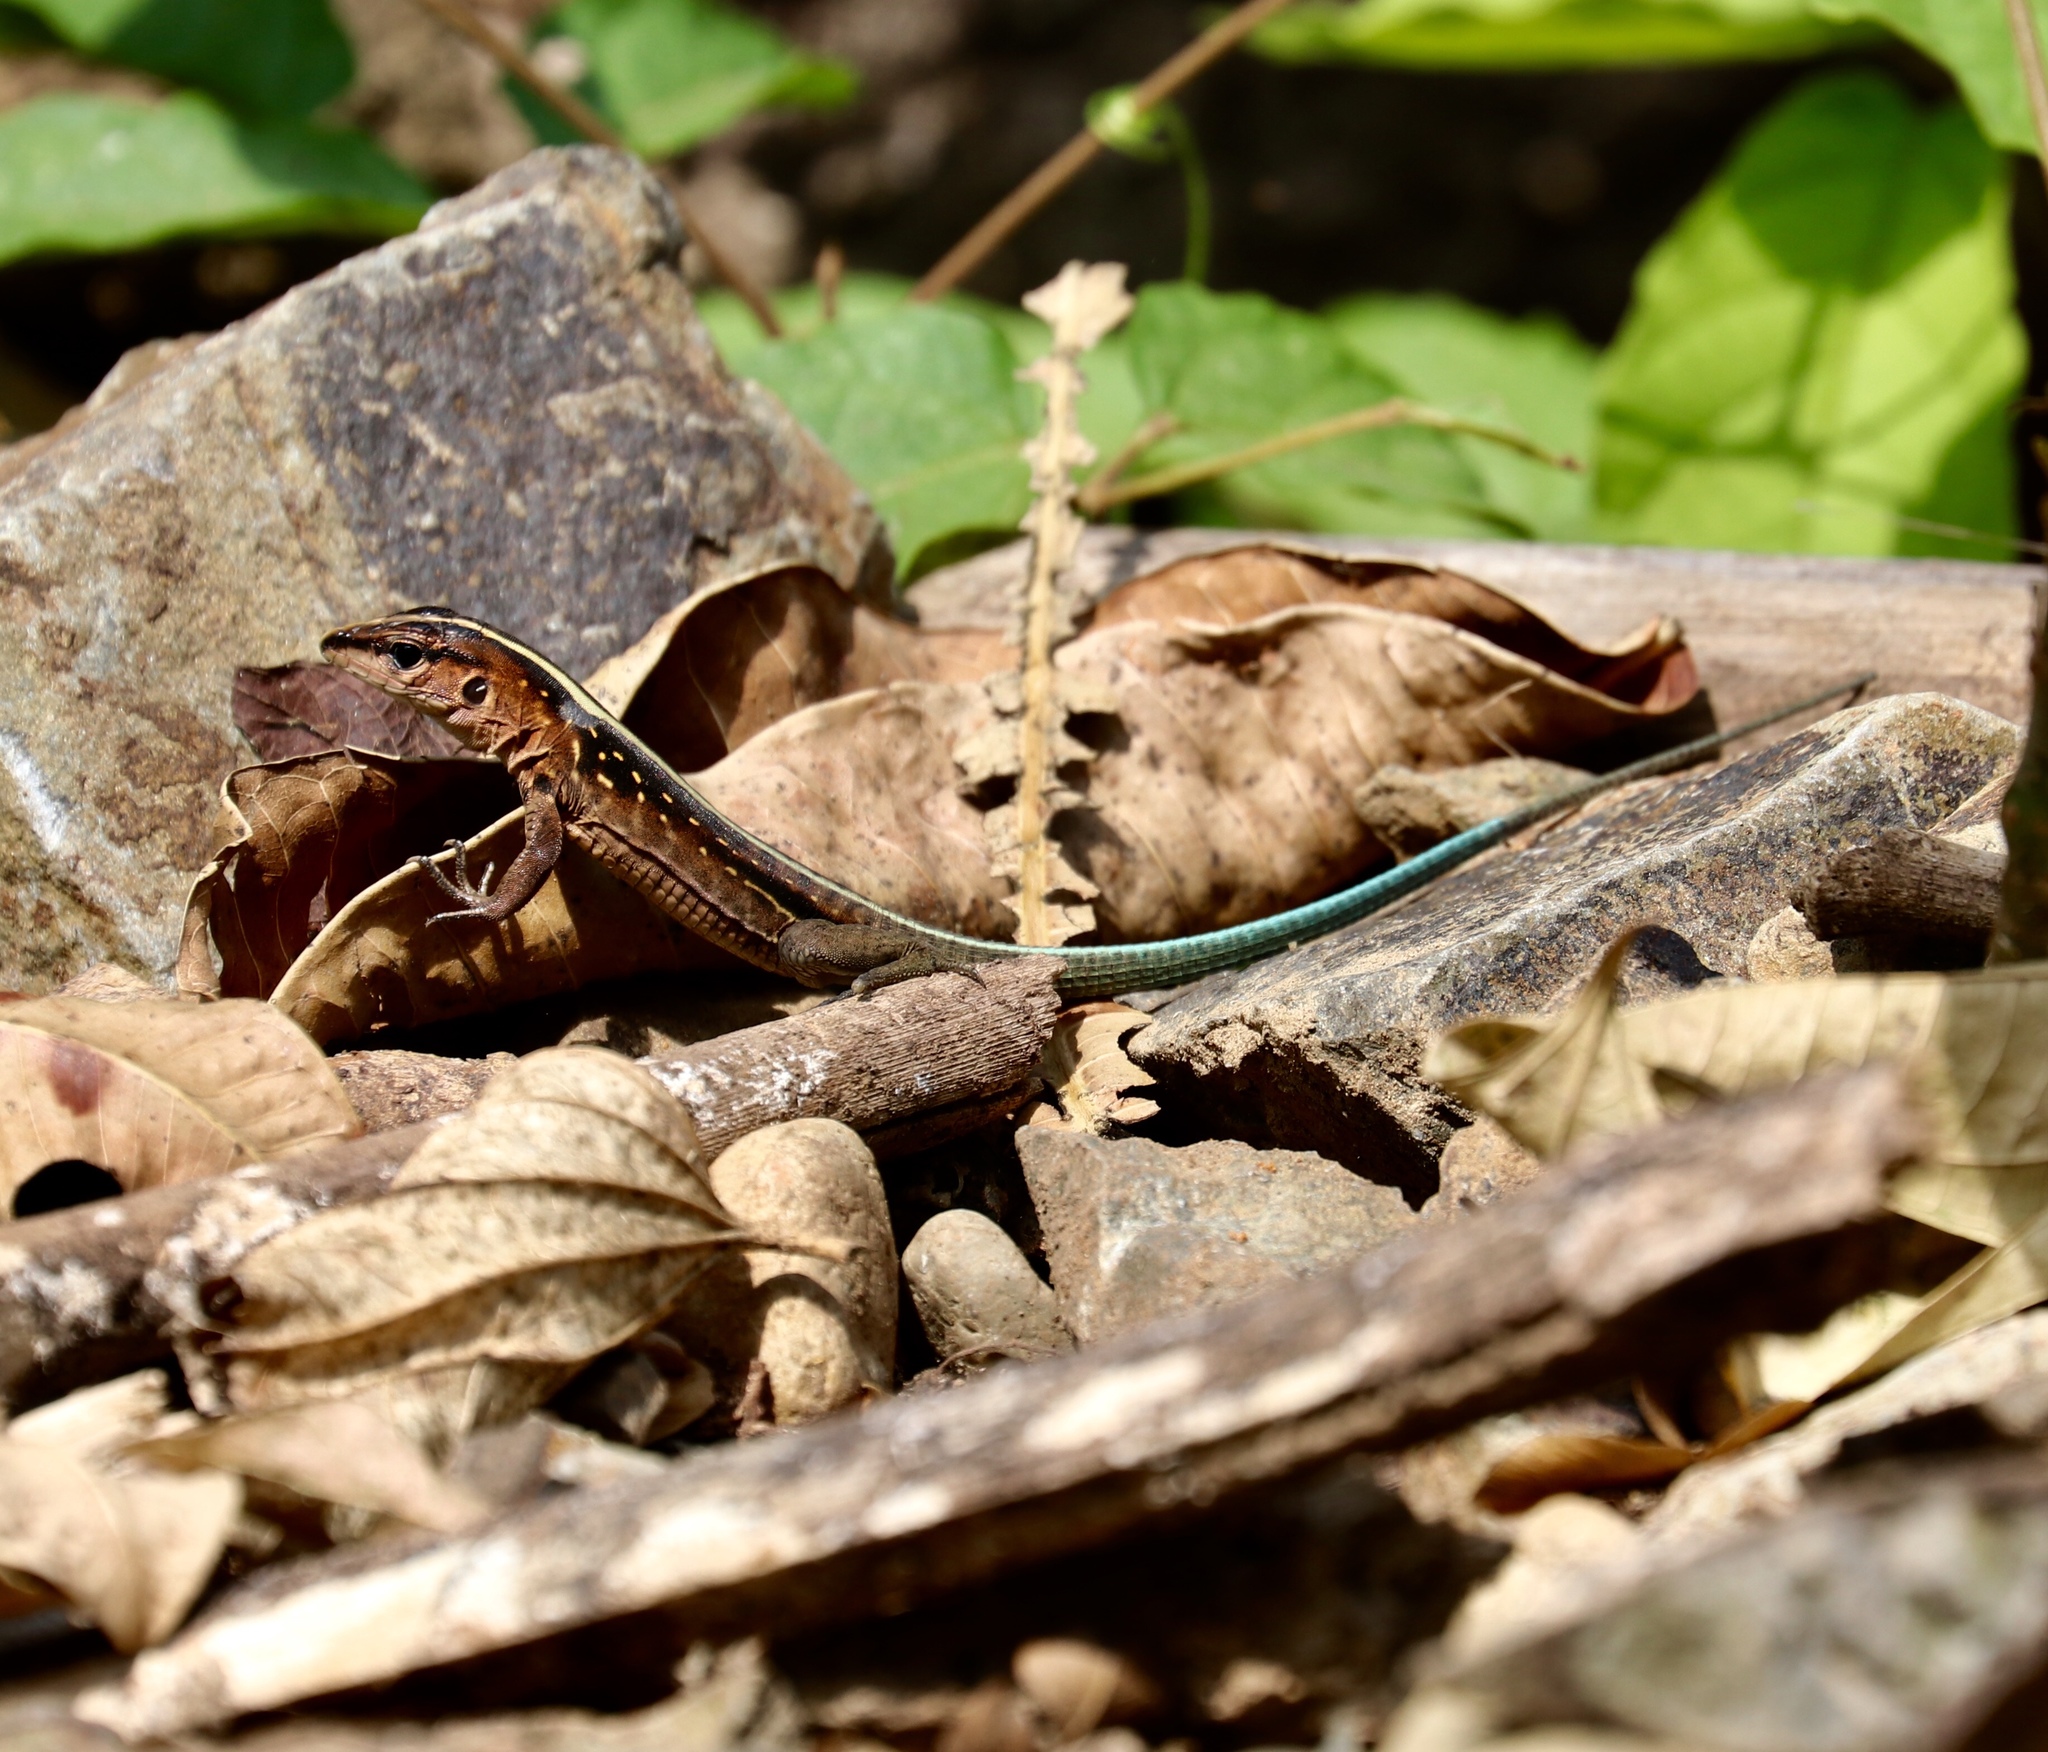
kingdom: Animalia
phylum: Chordata
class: Squamata
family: Teiidae
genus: Holcosus
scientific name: Holcosus festivus
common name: Middle american ameiva
